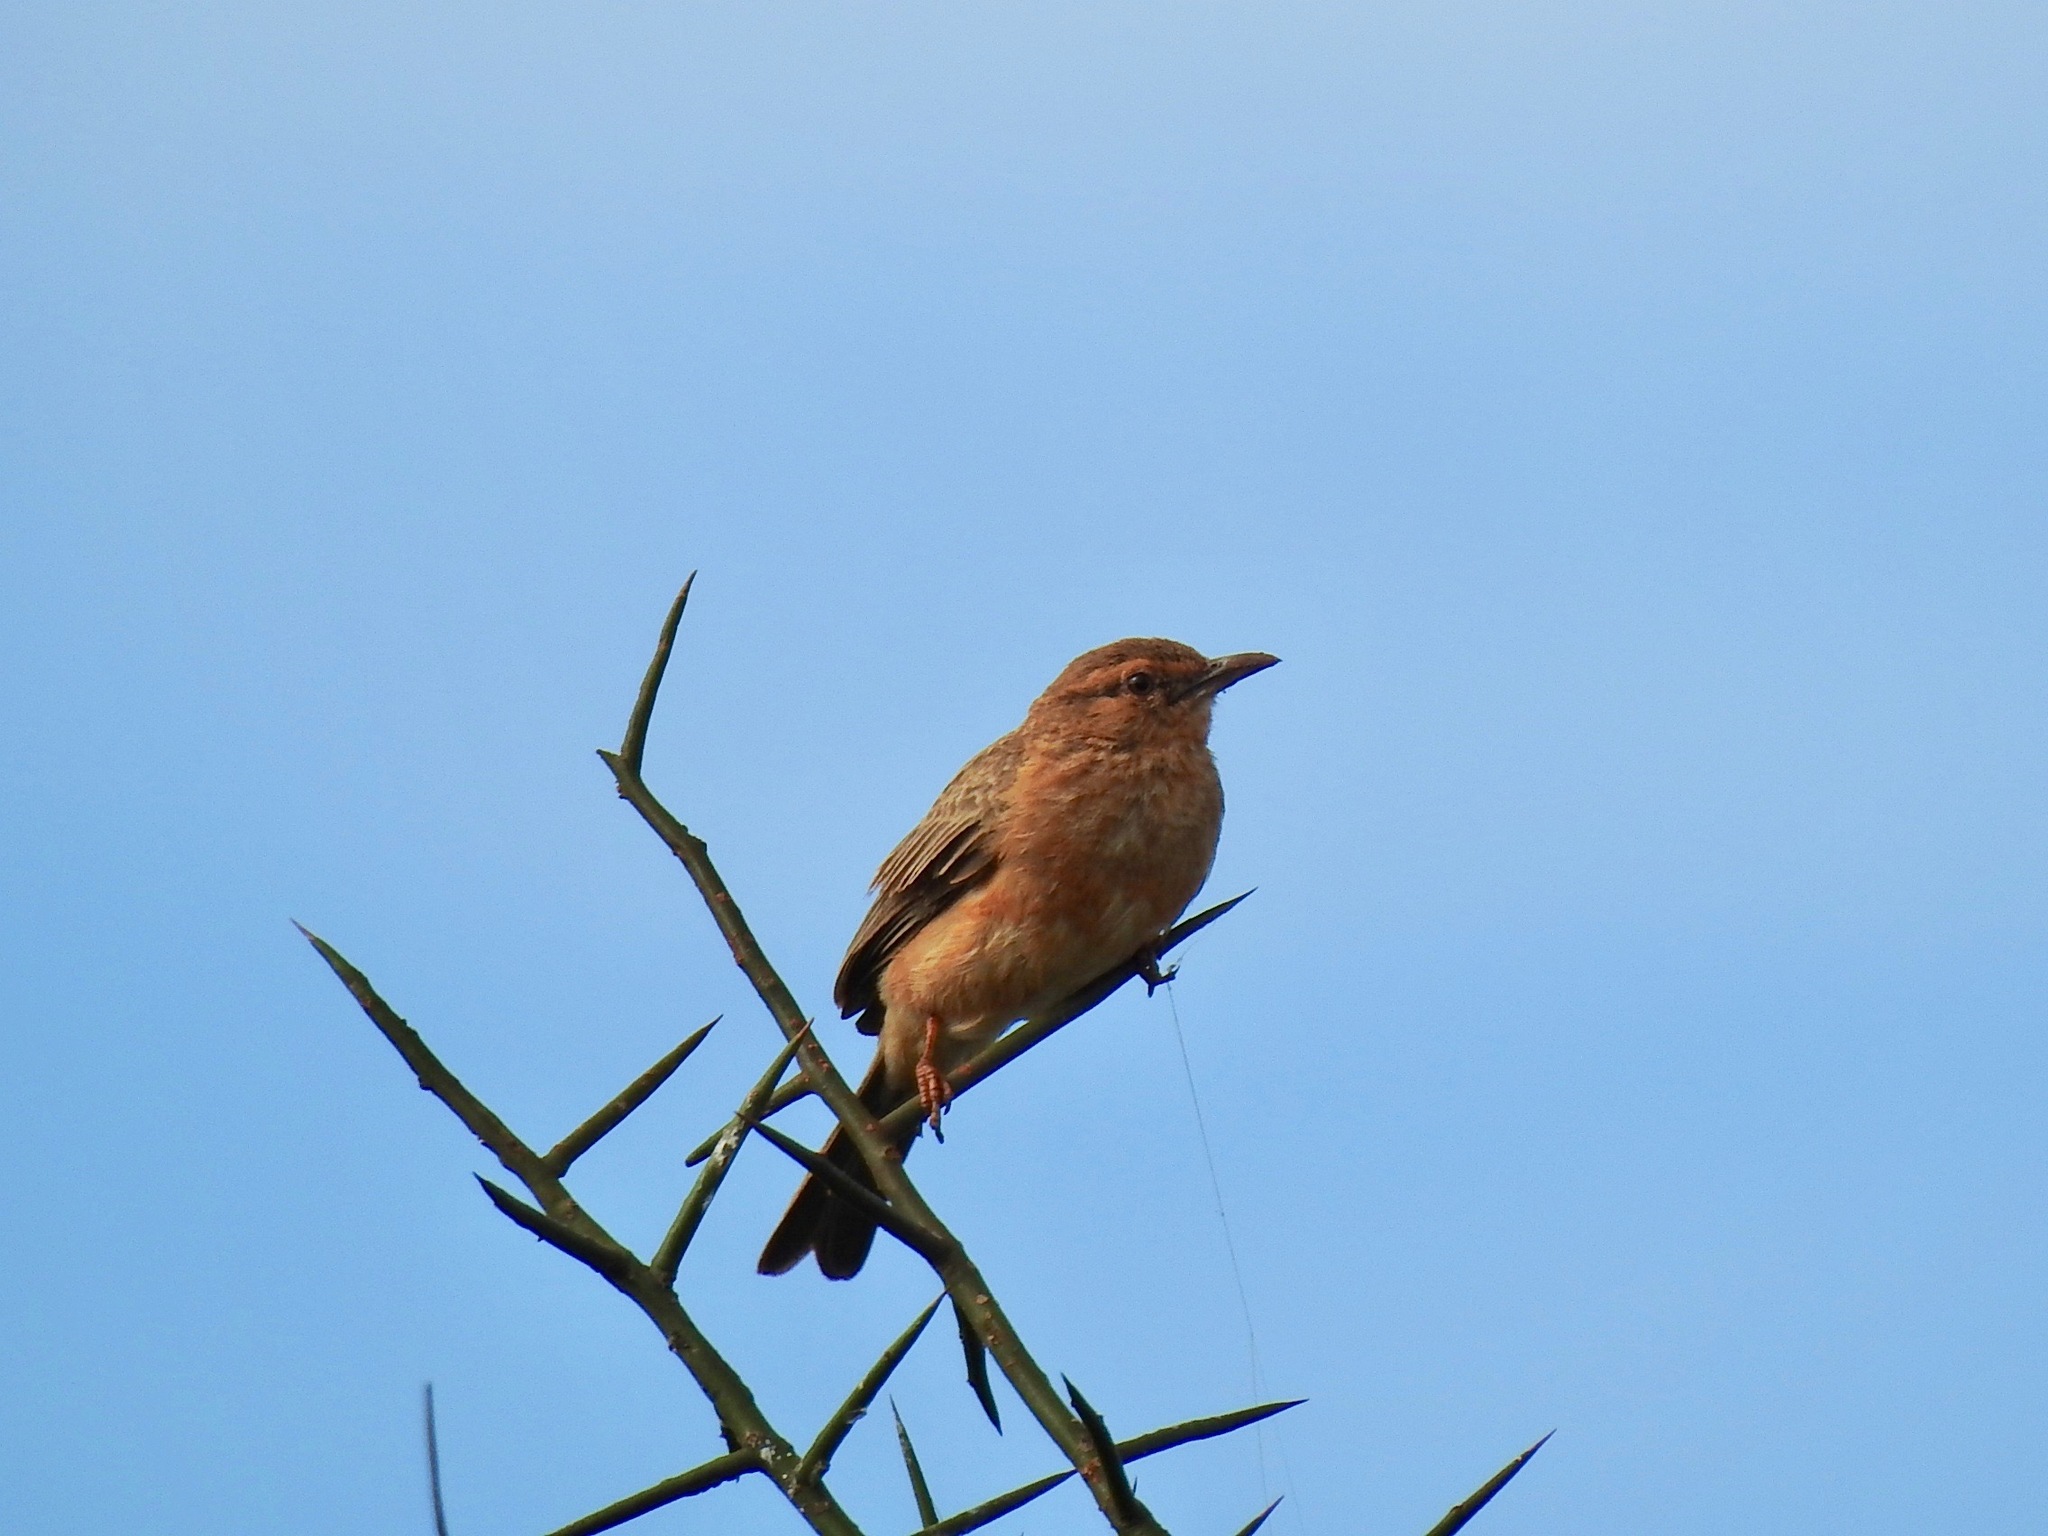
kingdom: Animalia
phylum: Chordata
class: Aves
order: Passeriformes
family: Alaudidae
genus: Calendulauda
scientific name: Calendulauda poecilosterna
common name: Pink-breasted lark
